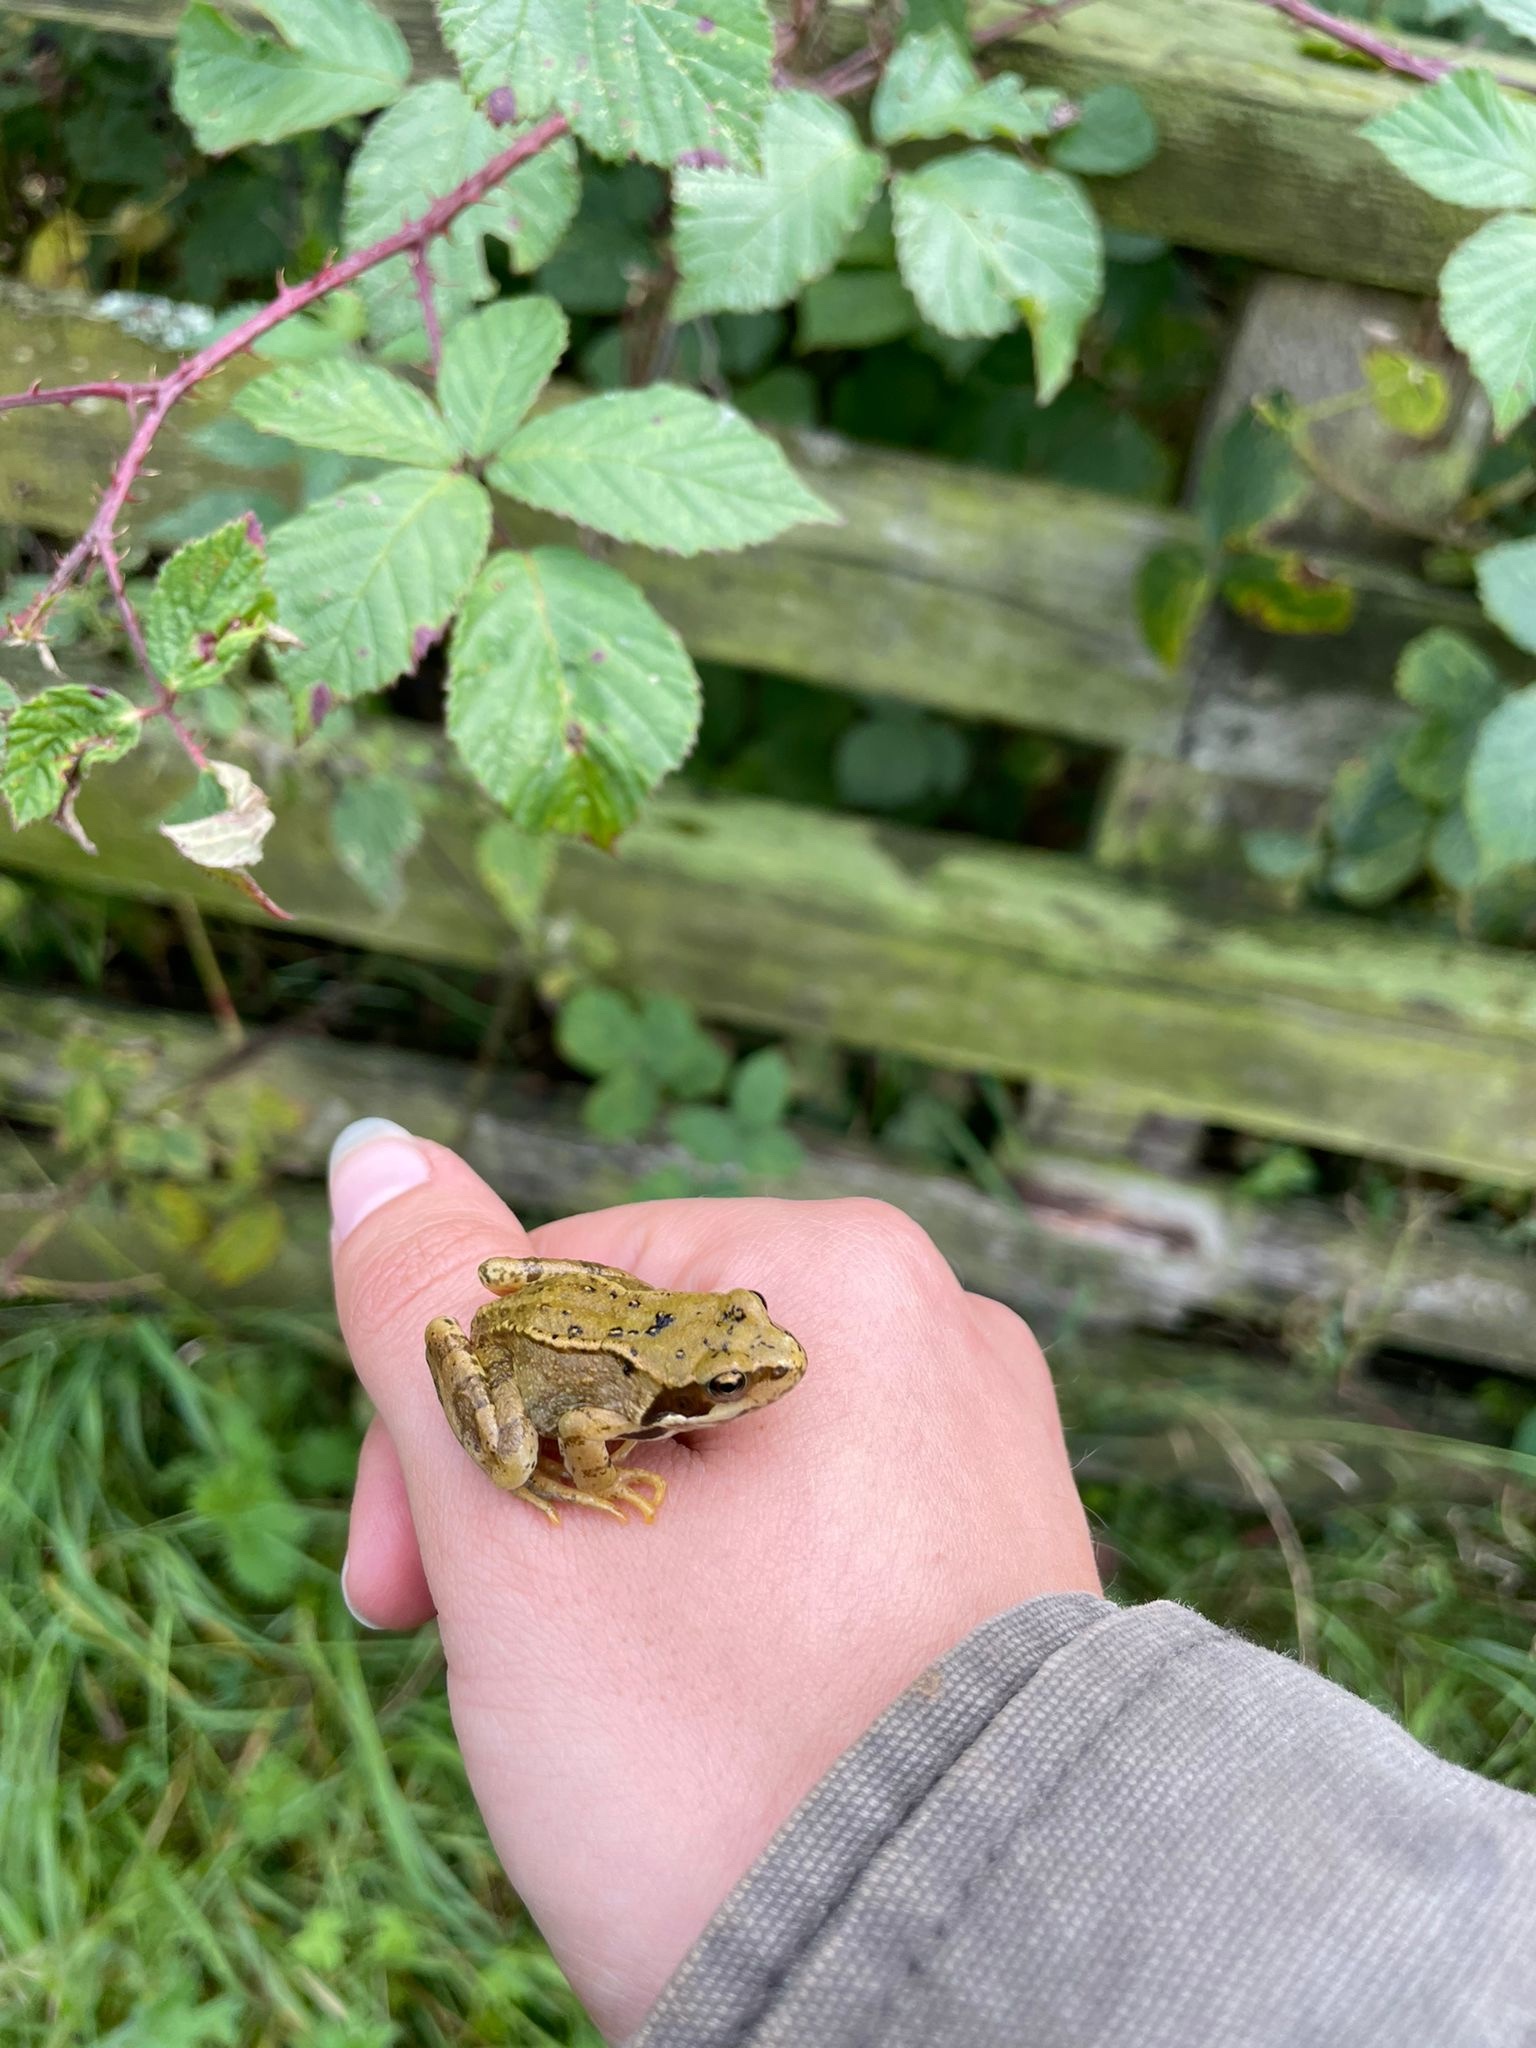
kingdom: Animalia
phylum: Chordata
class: Amphibia
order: Anura
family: Ranidae
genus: Rana
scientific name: Rana temporaria
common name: Common frog
